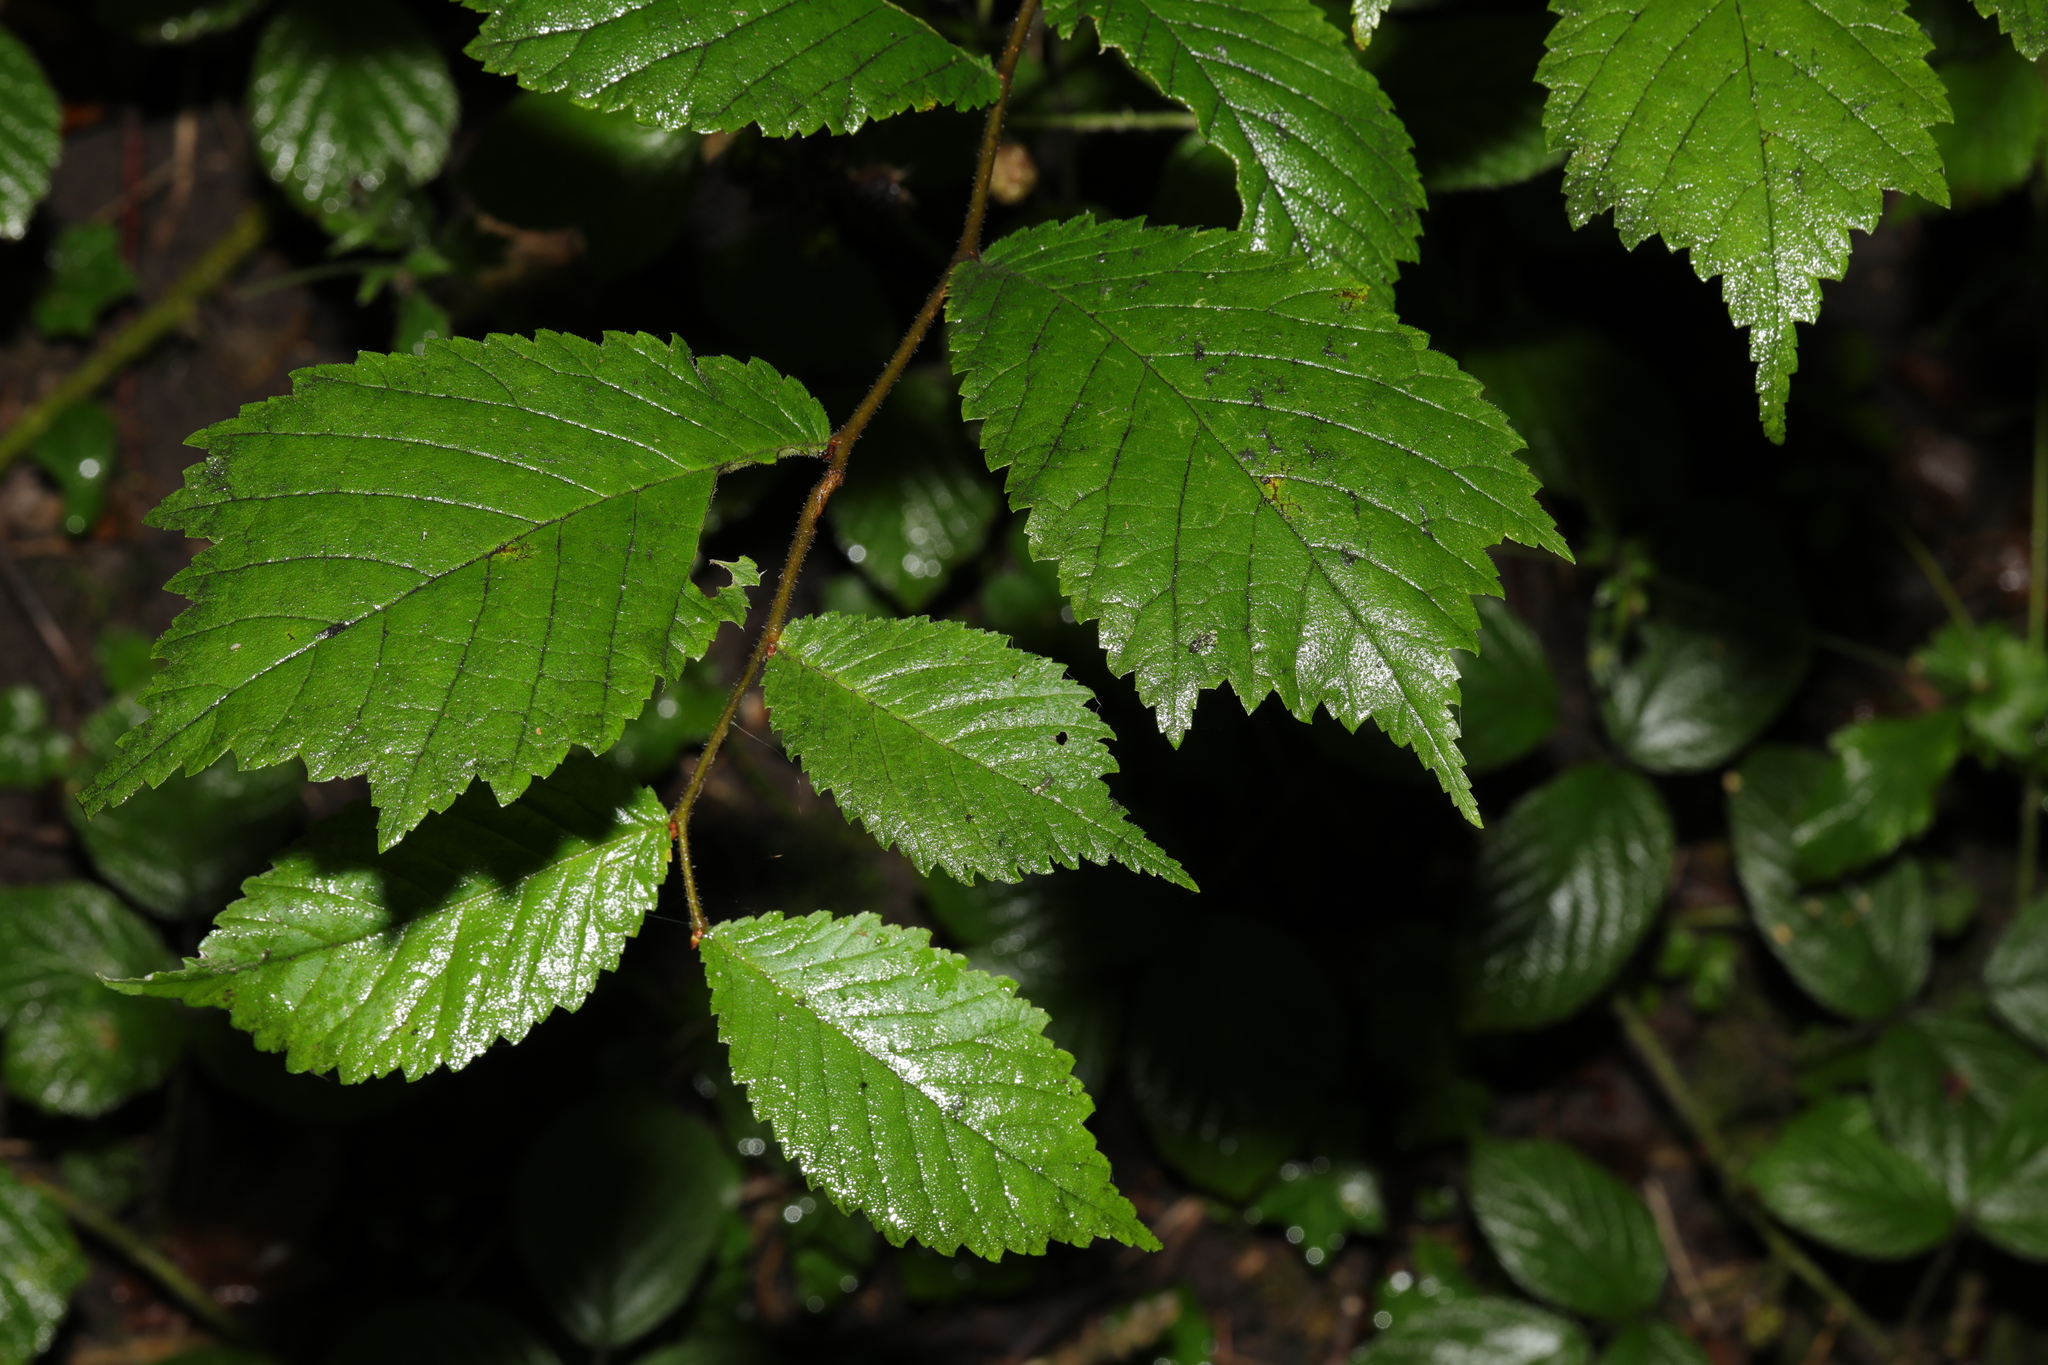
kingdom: Plantae
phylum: Tracheophyta
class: Magnoliopsida
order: Rosales
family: Ulmaceae
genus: Ulmus
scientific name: Ulmus glabra
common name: Wych elm
